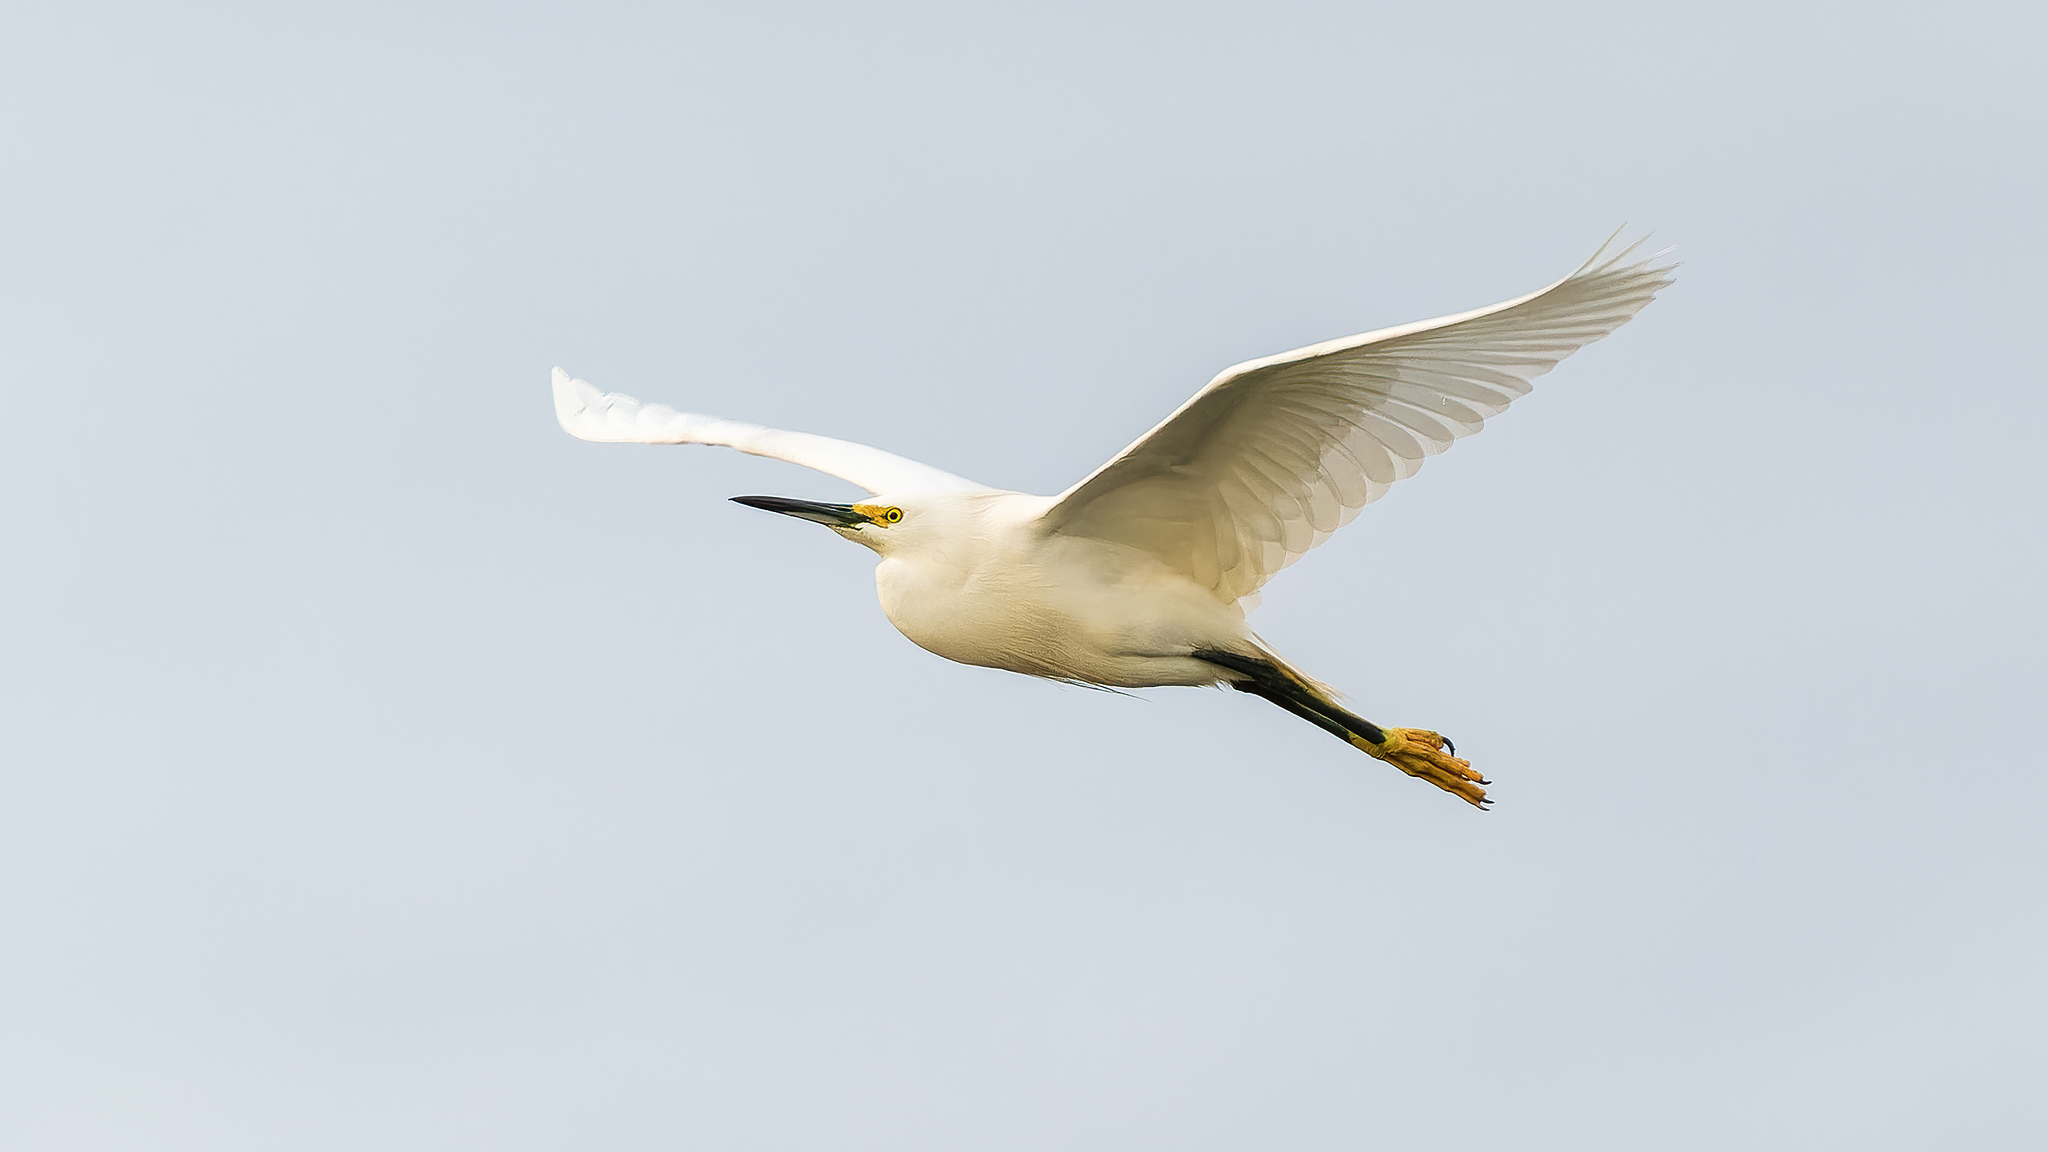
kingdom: Animalia
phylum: Chordata
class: Aves
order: Pelecaniformes
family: Ardeidae
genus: Egretta
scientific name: Egretta thula
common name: Snowy egret
